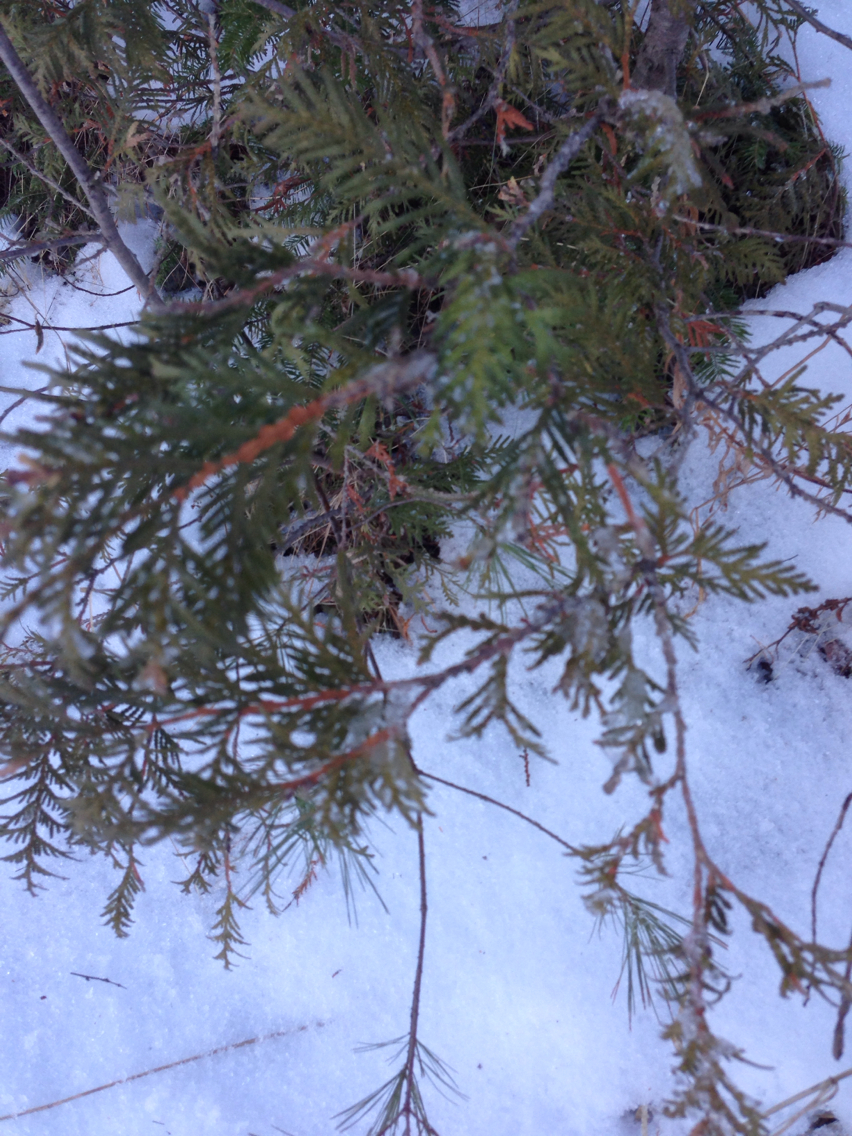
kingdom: Plantae
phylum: Tracheophyta
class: Pinopsida
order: Pinales
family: Cupressaceae
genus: Thuja
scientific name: Thuja occidentalis
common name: Northern white-cedar
